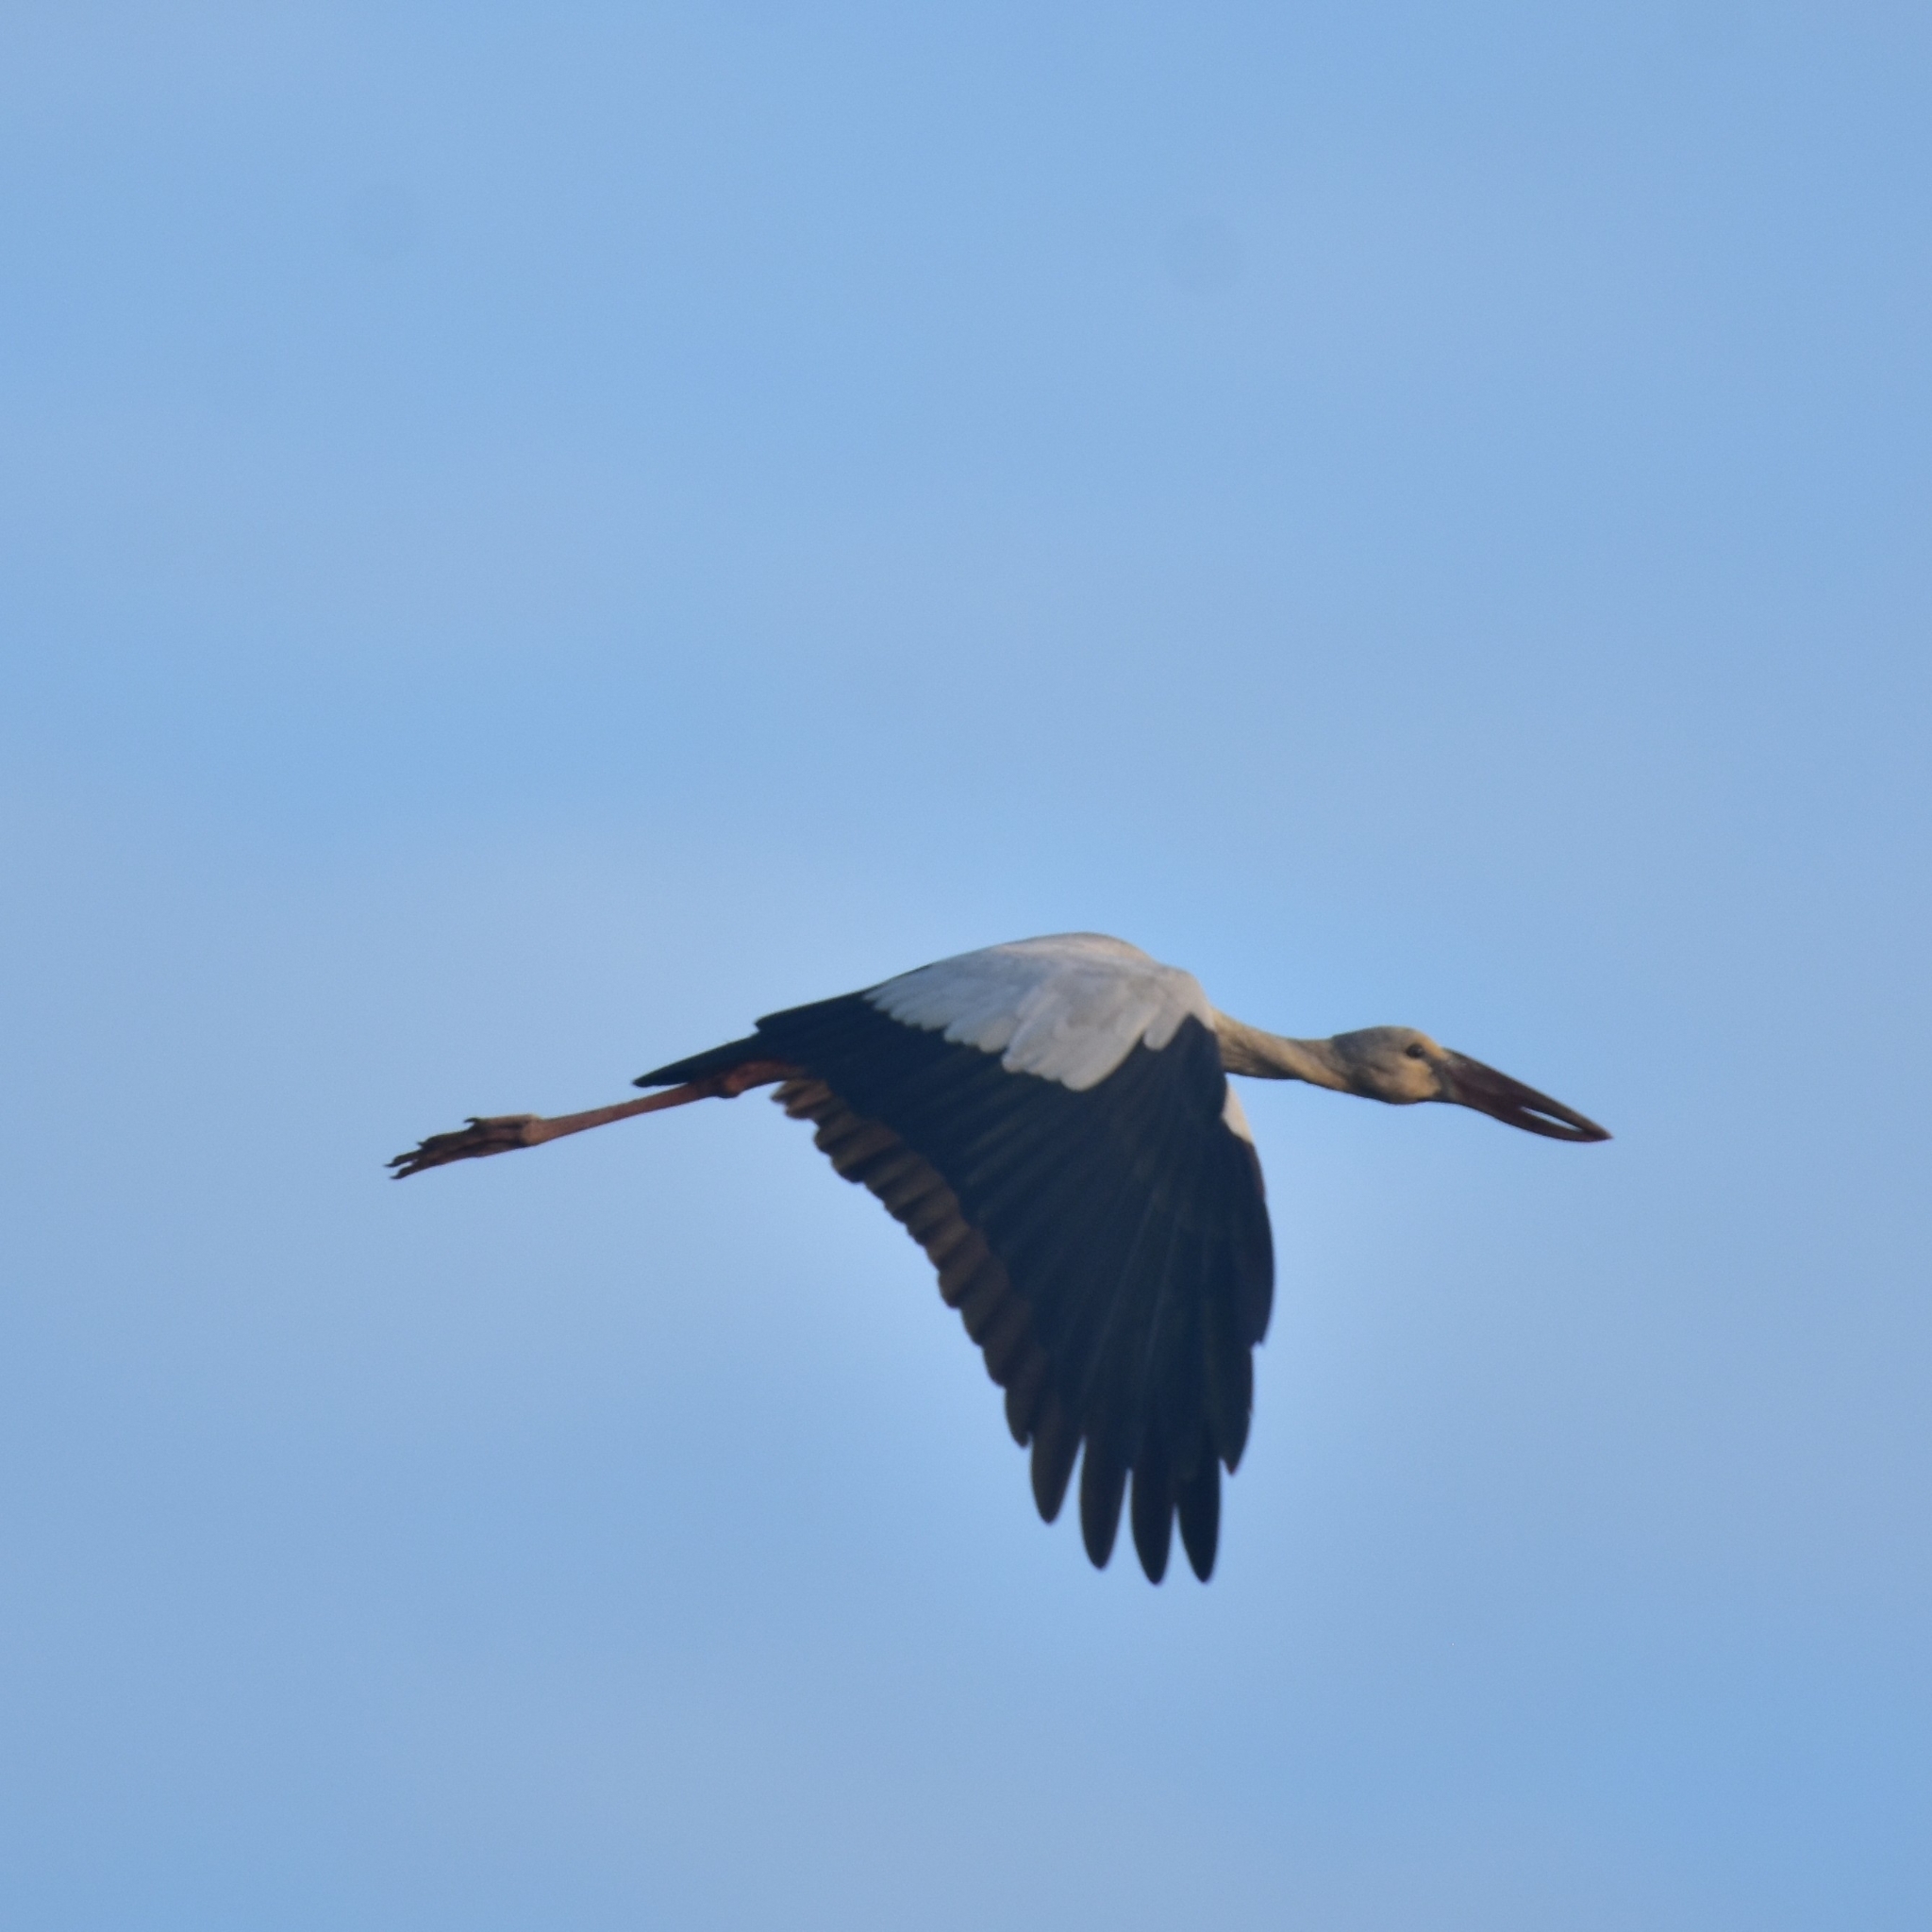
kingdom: Animalia
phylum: Chordata
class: Aves
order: Ciconiiformes
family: Ciconiidae
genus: Anastomus
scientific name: Anastomus oscitans
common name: Asian openbill
